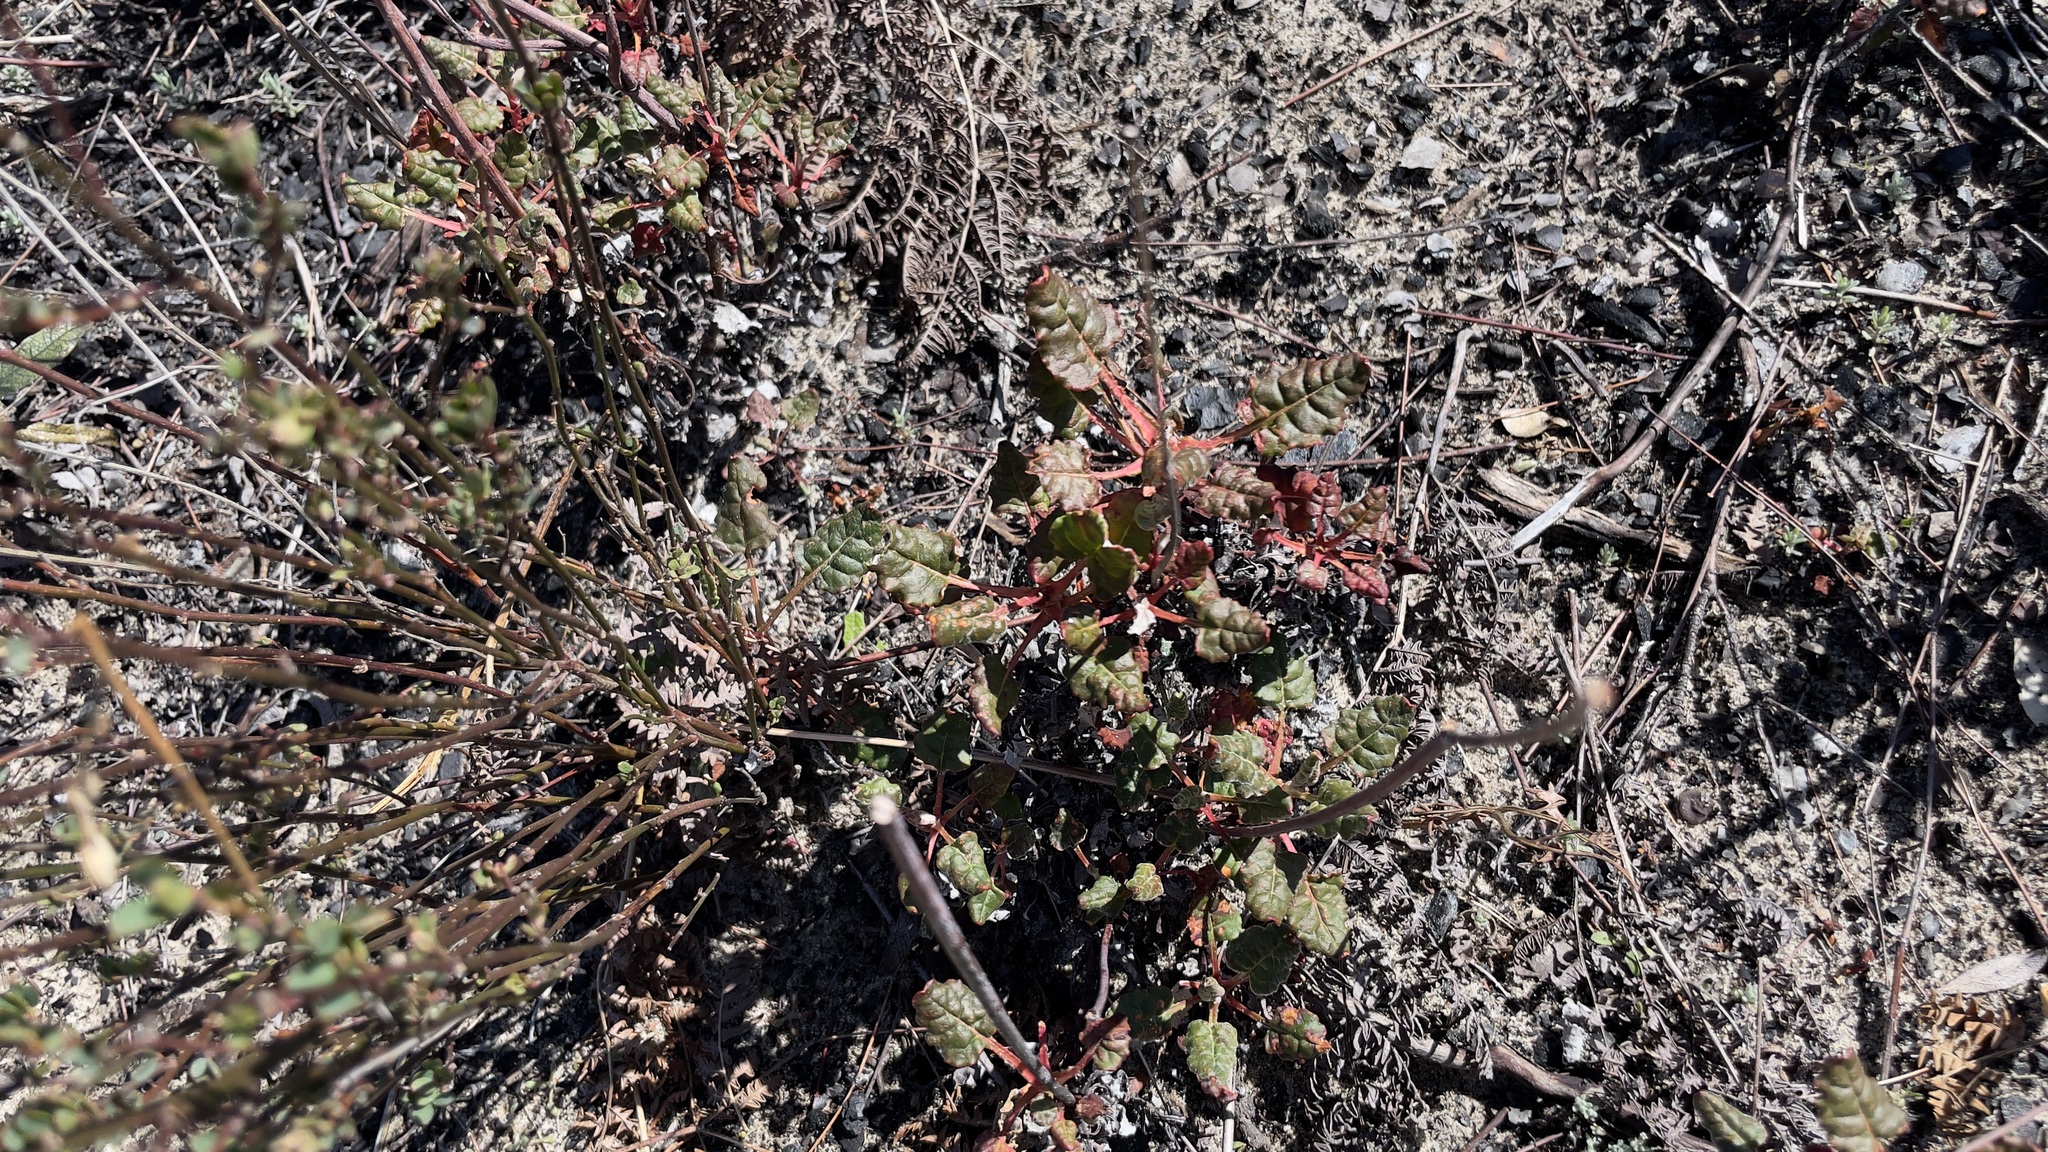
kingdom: Plantae
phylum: Tracheophyta
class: Magnoliopsida
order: Caryophyllales
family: Polygonaceae
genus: Eriogonum
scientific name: Eriogonum nudum
